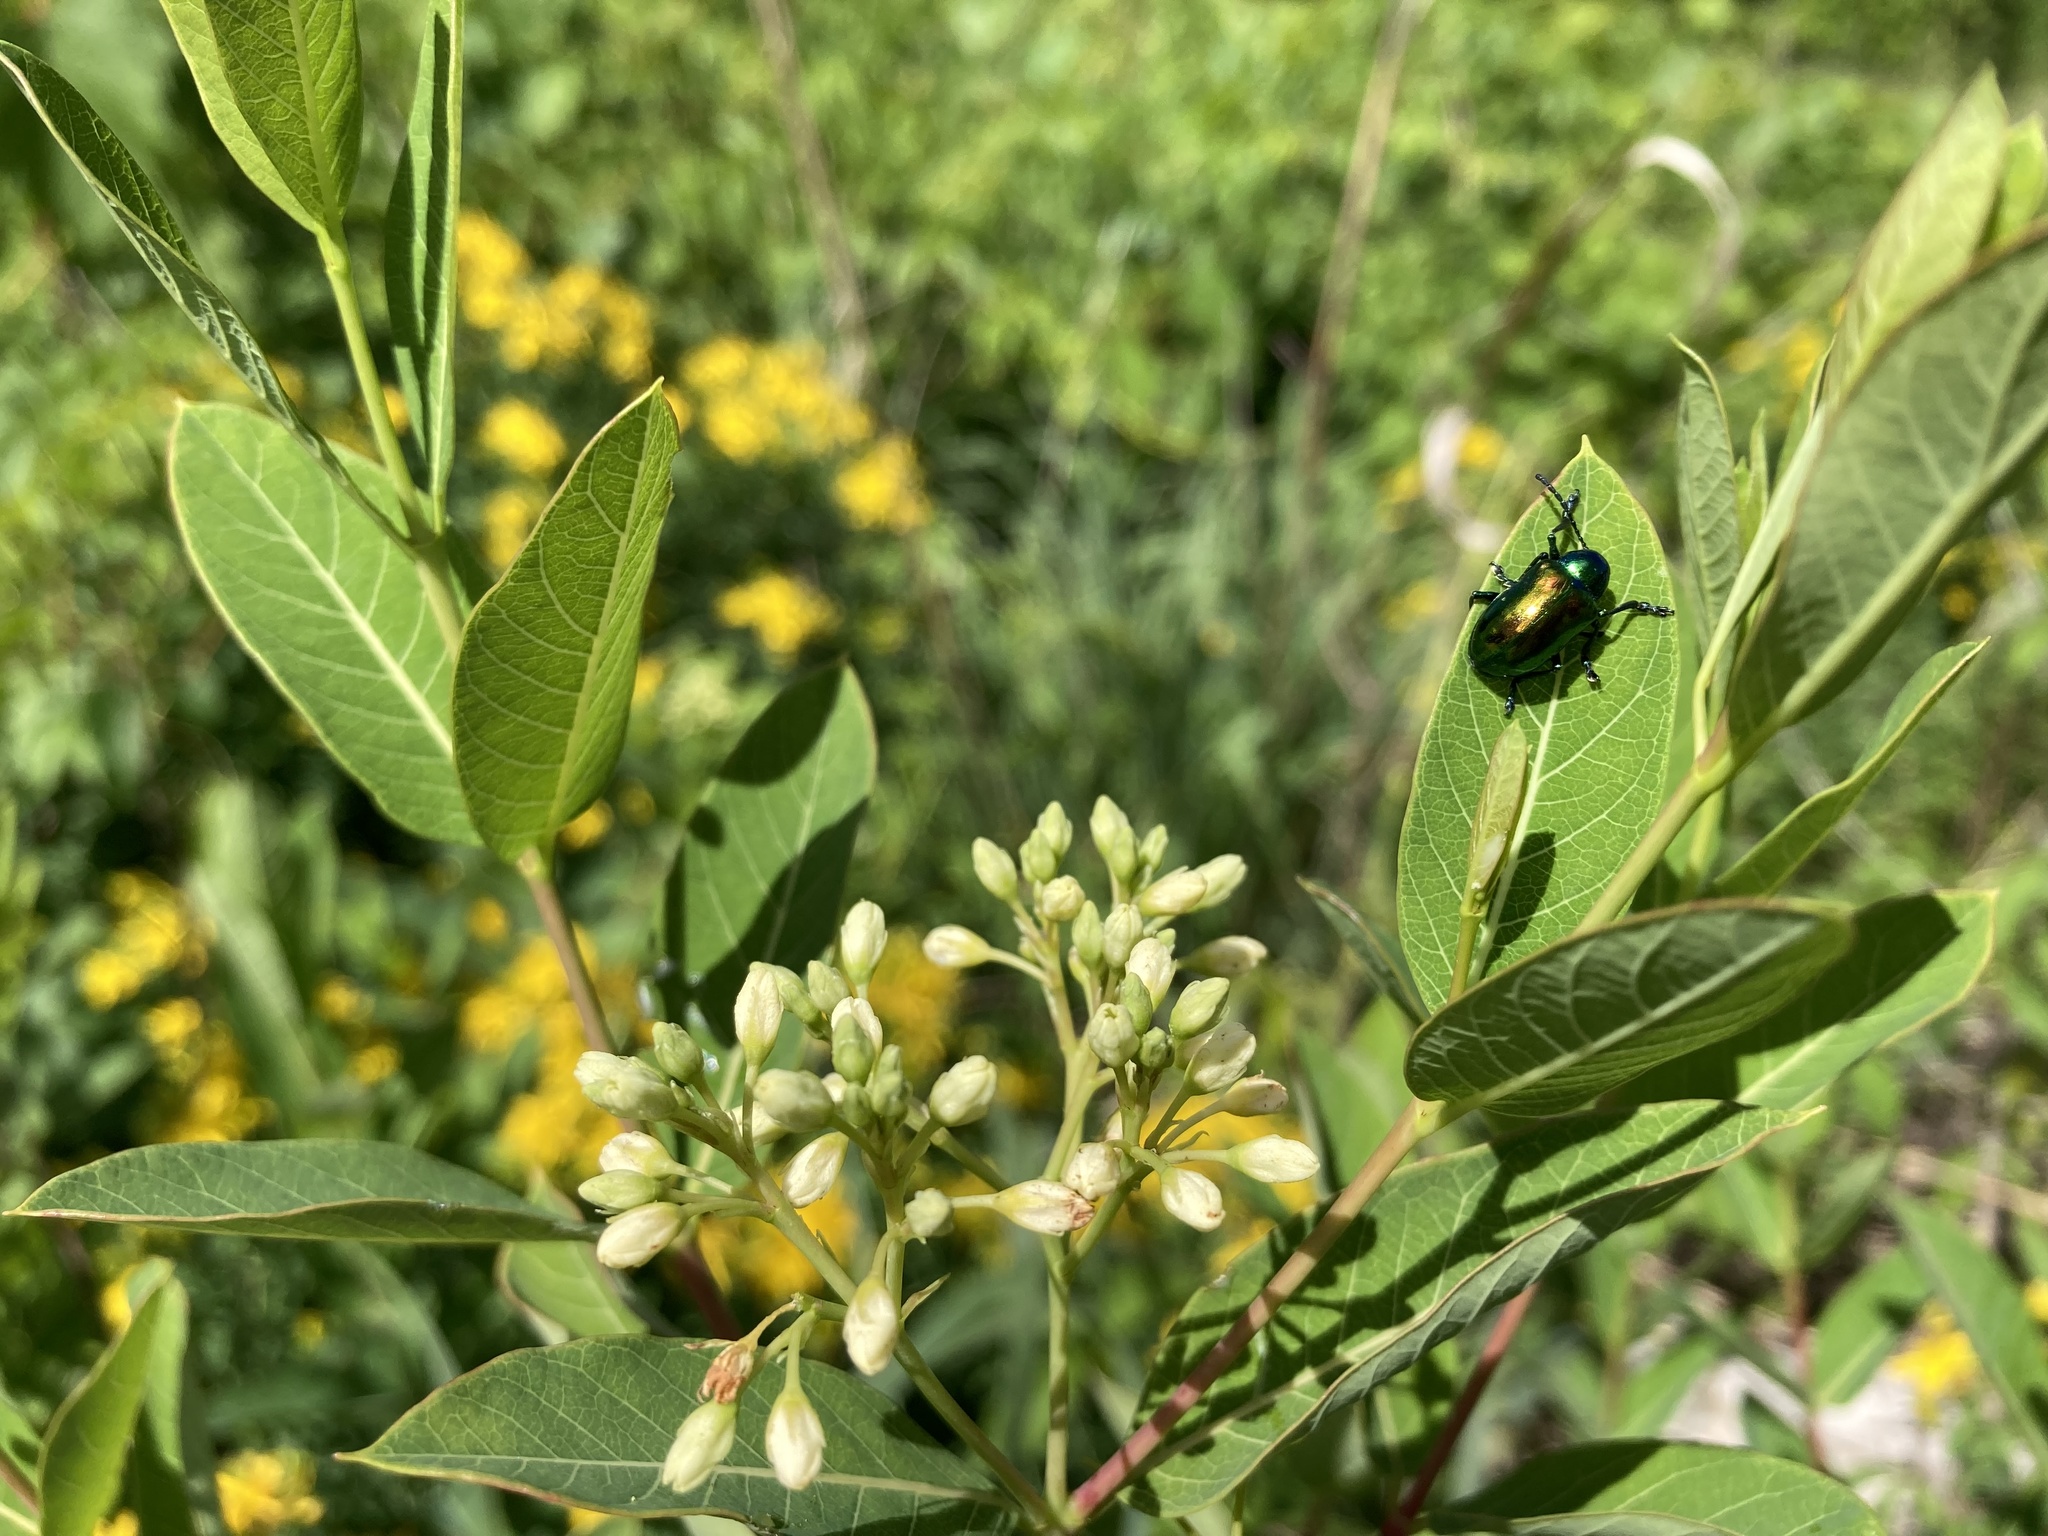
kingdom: Animalia
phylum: Arthropoda
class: Insecta
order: Coleoptera
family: Chrysomelidae
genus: Chrysochus
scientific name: Chrysochus auratus
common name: Dogbane leaf beetle
